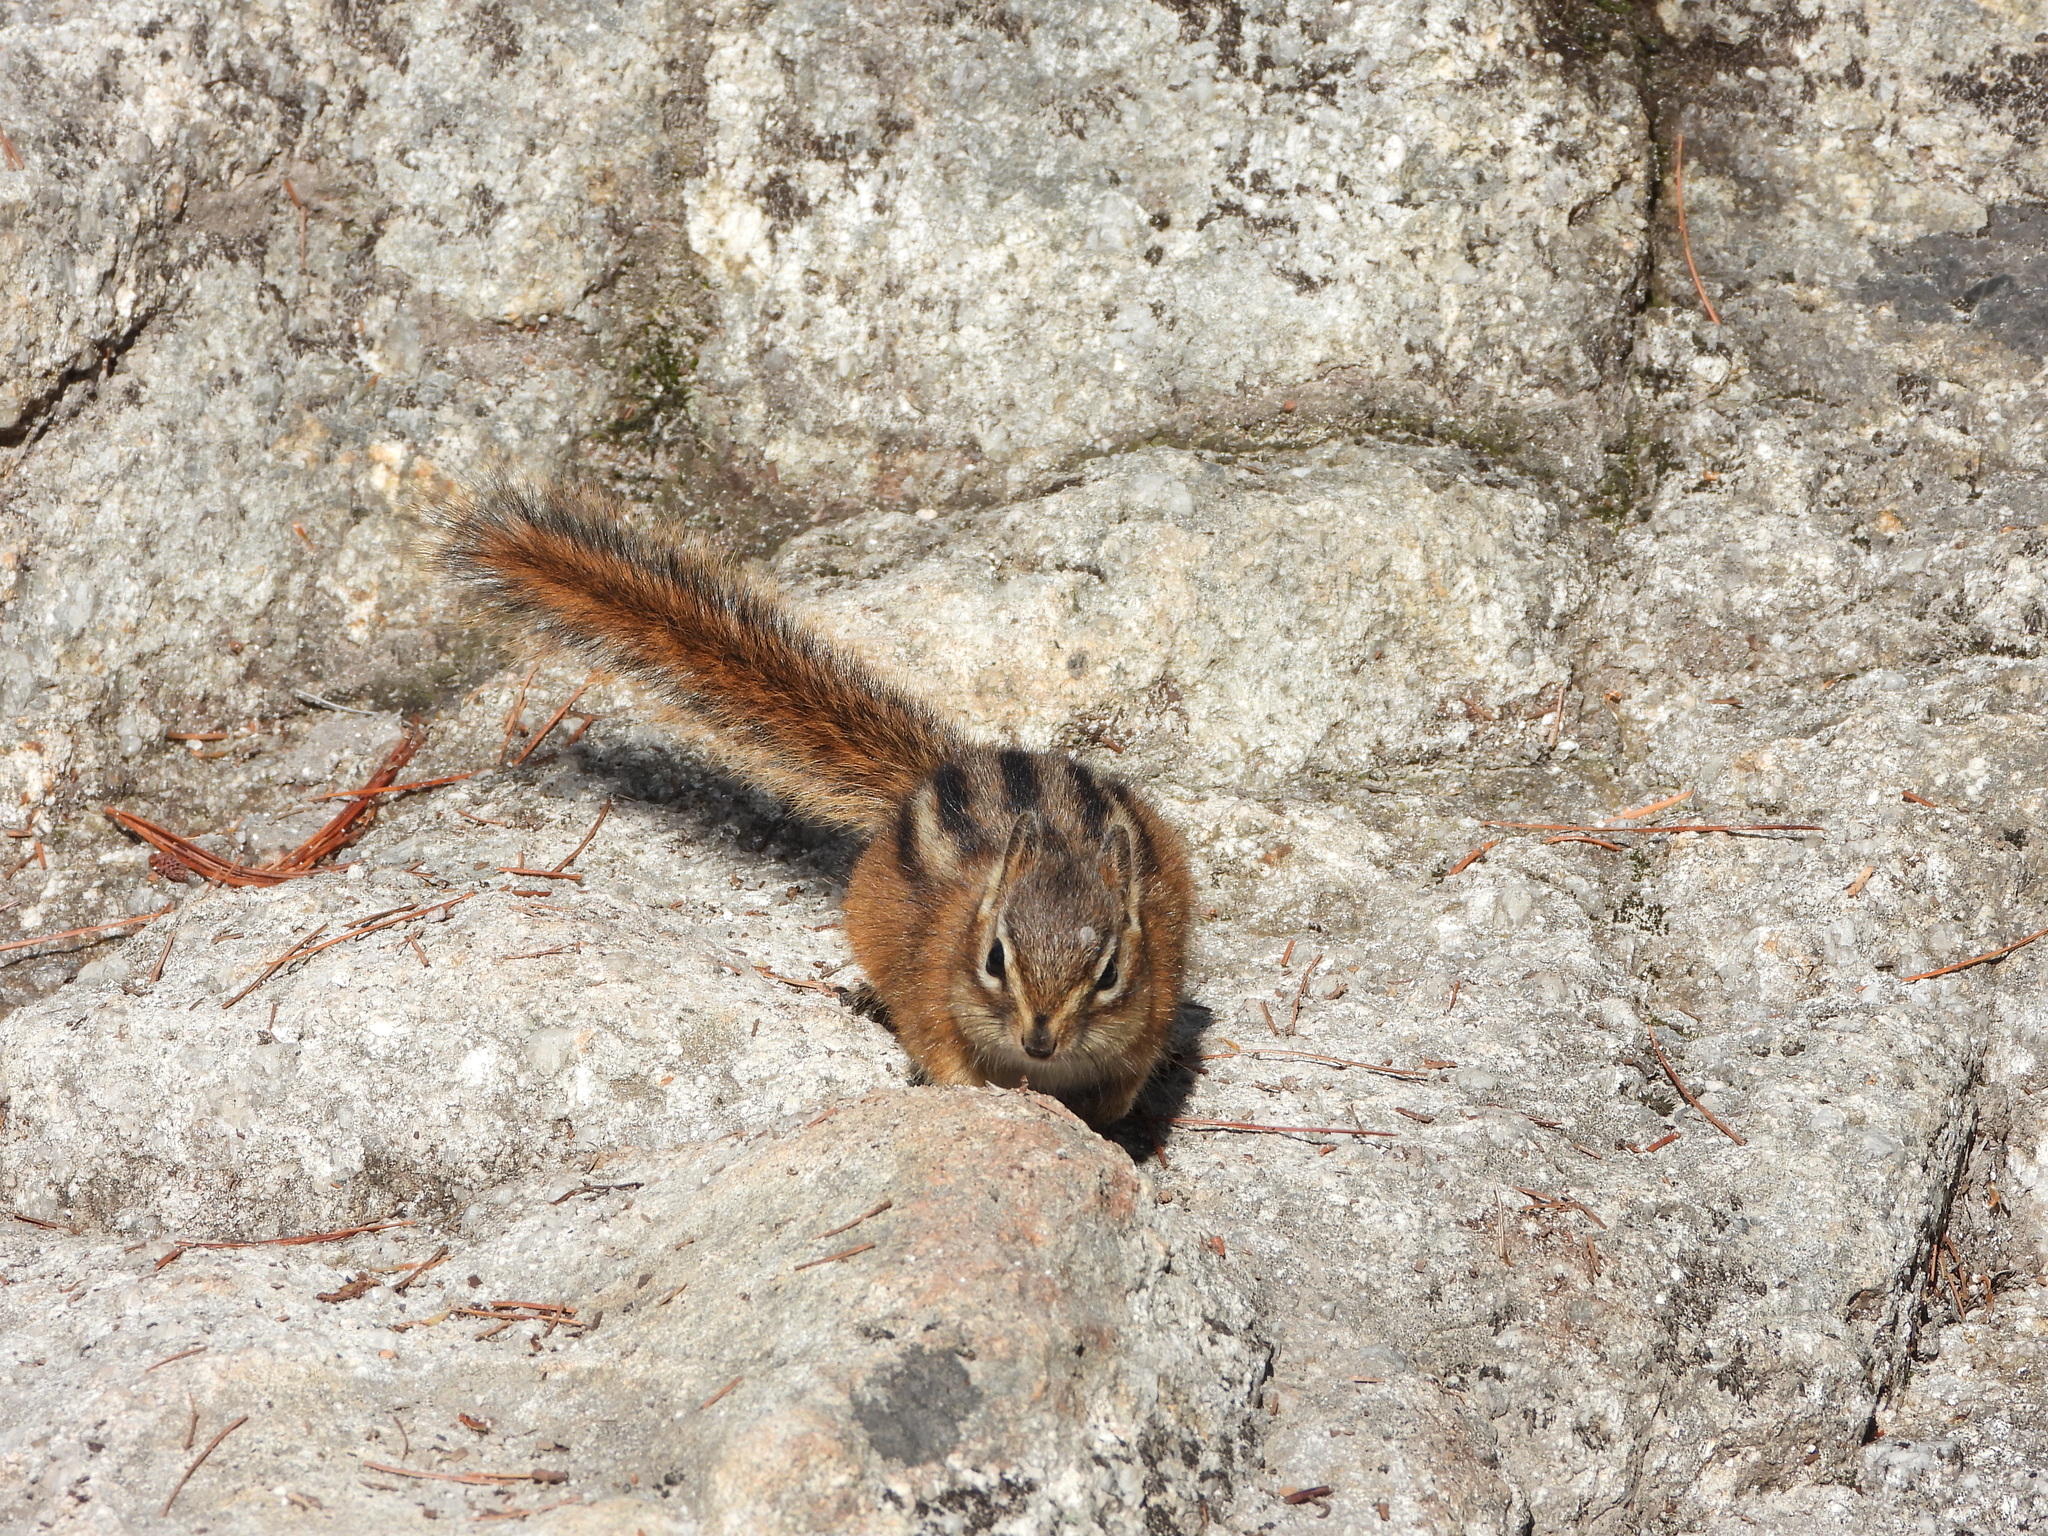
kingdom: Animalia
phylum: Chordata
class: Mammalia
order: Rodentia
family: Sciuridae
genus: Tamias
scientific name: Tamias amoenus
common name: Yellow-pine chipmunk
